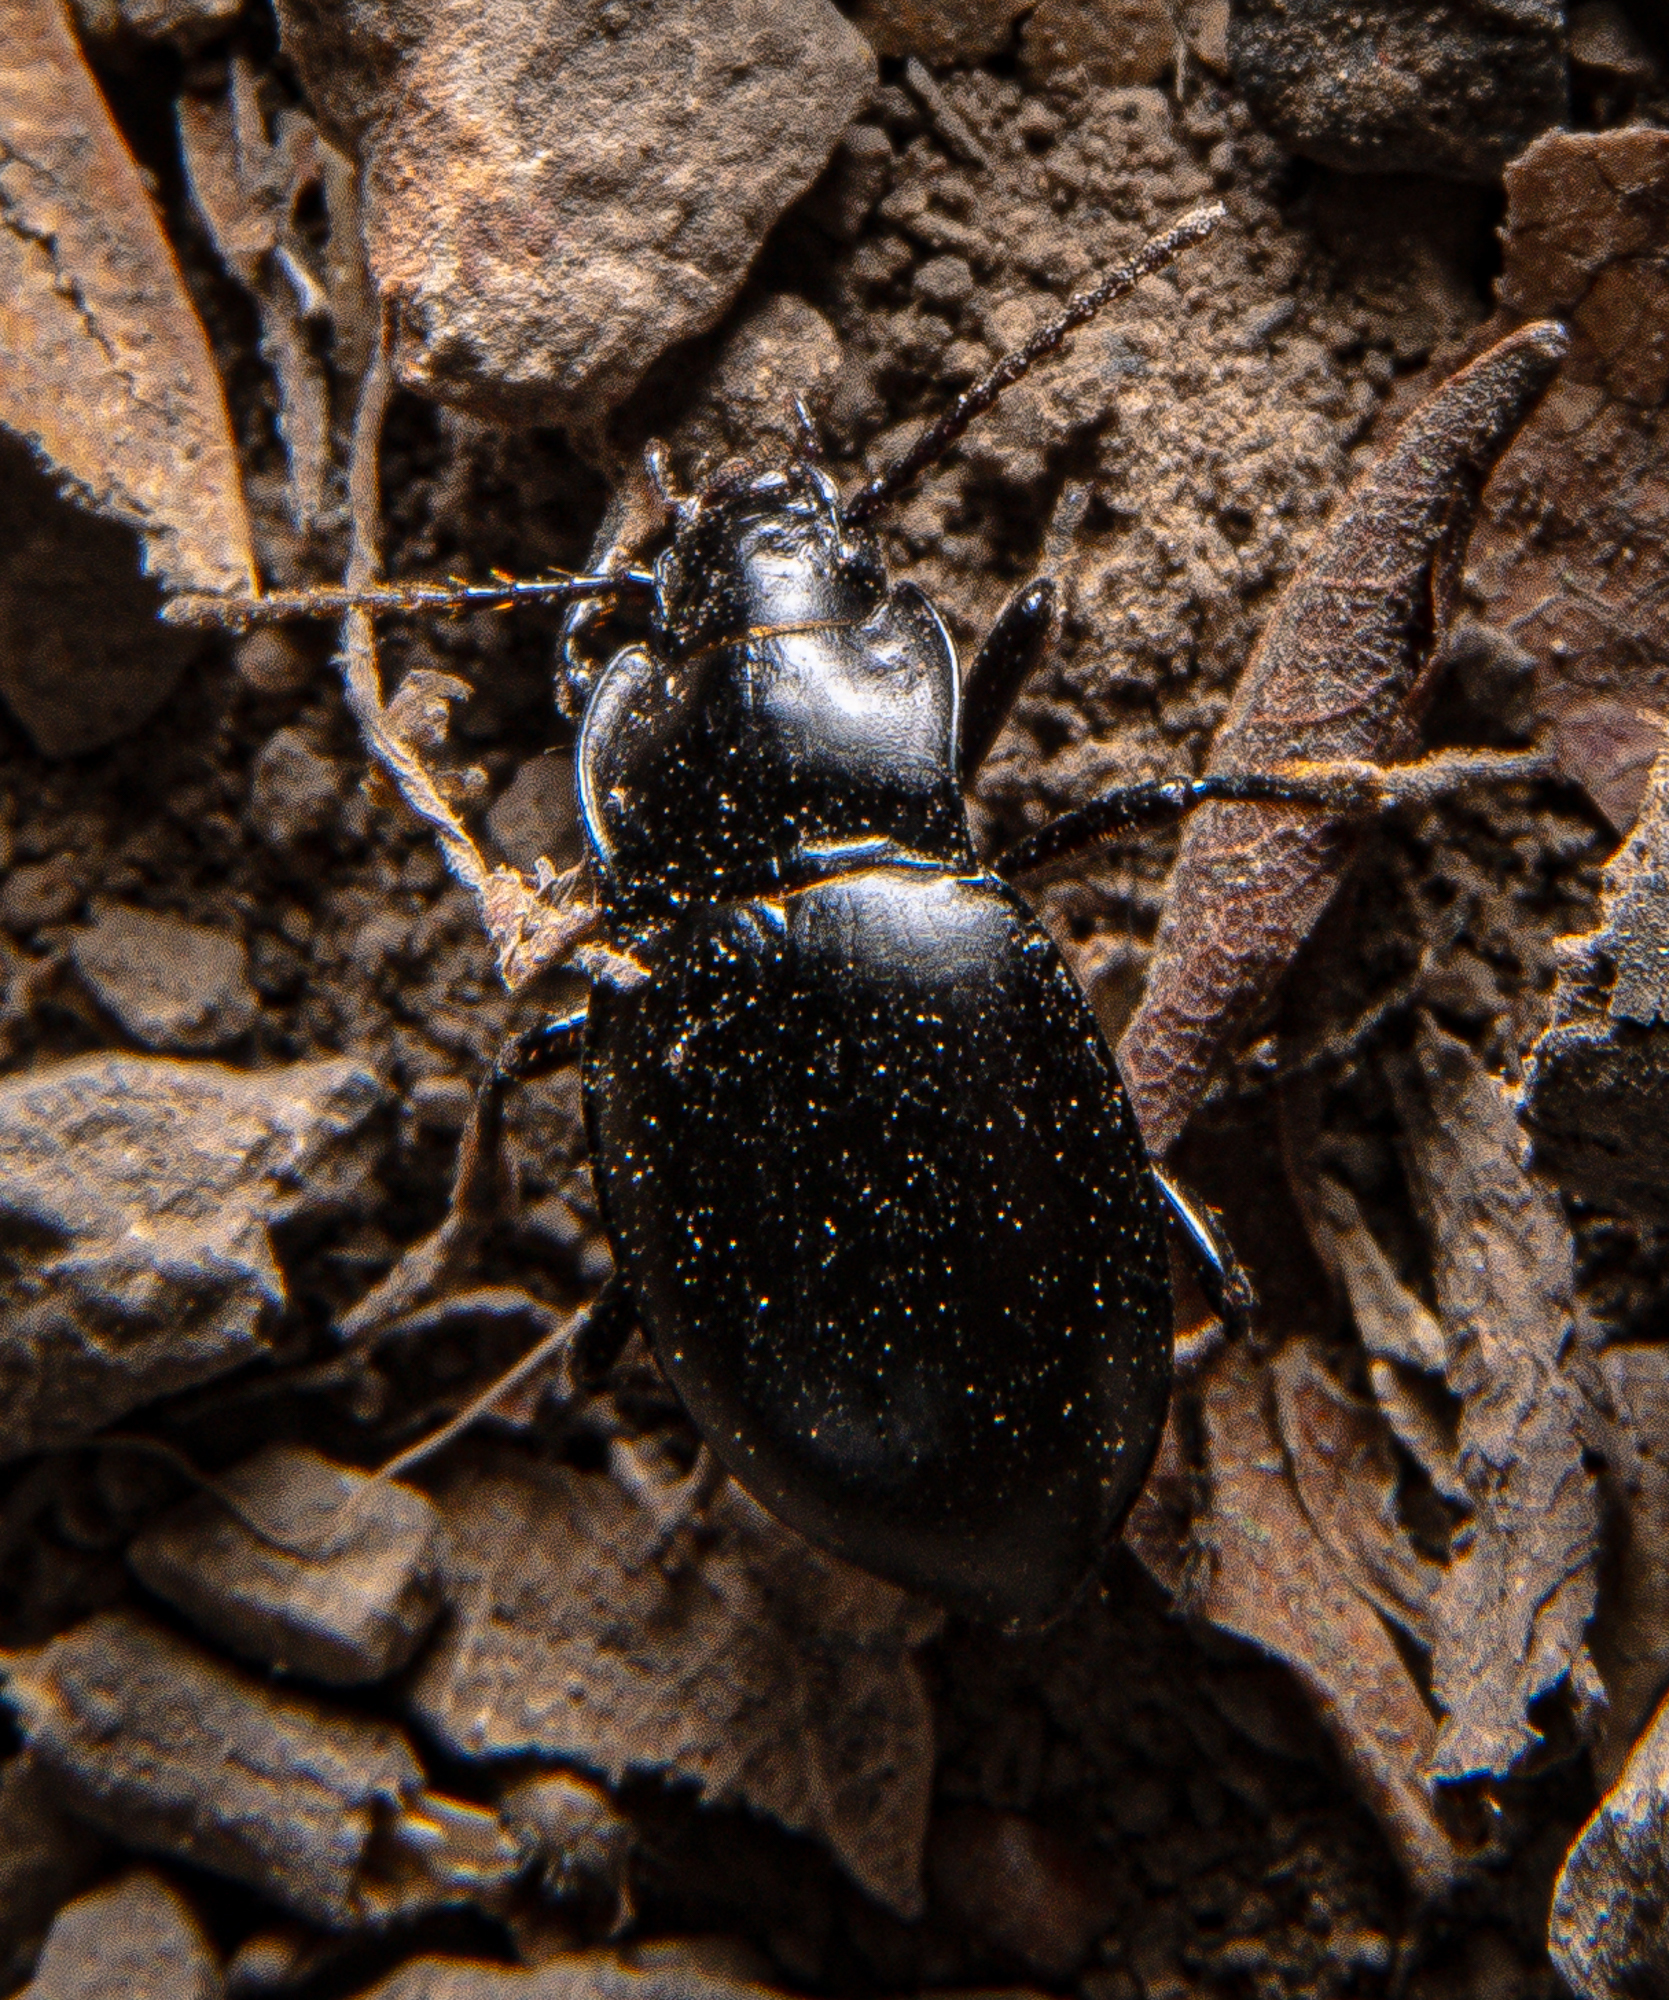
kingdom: Animalia
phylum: Arthropoda
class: Insecta
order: Coleoptera
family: Carabidae
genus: Metrius
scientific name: Metrius contractus
